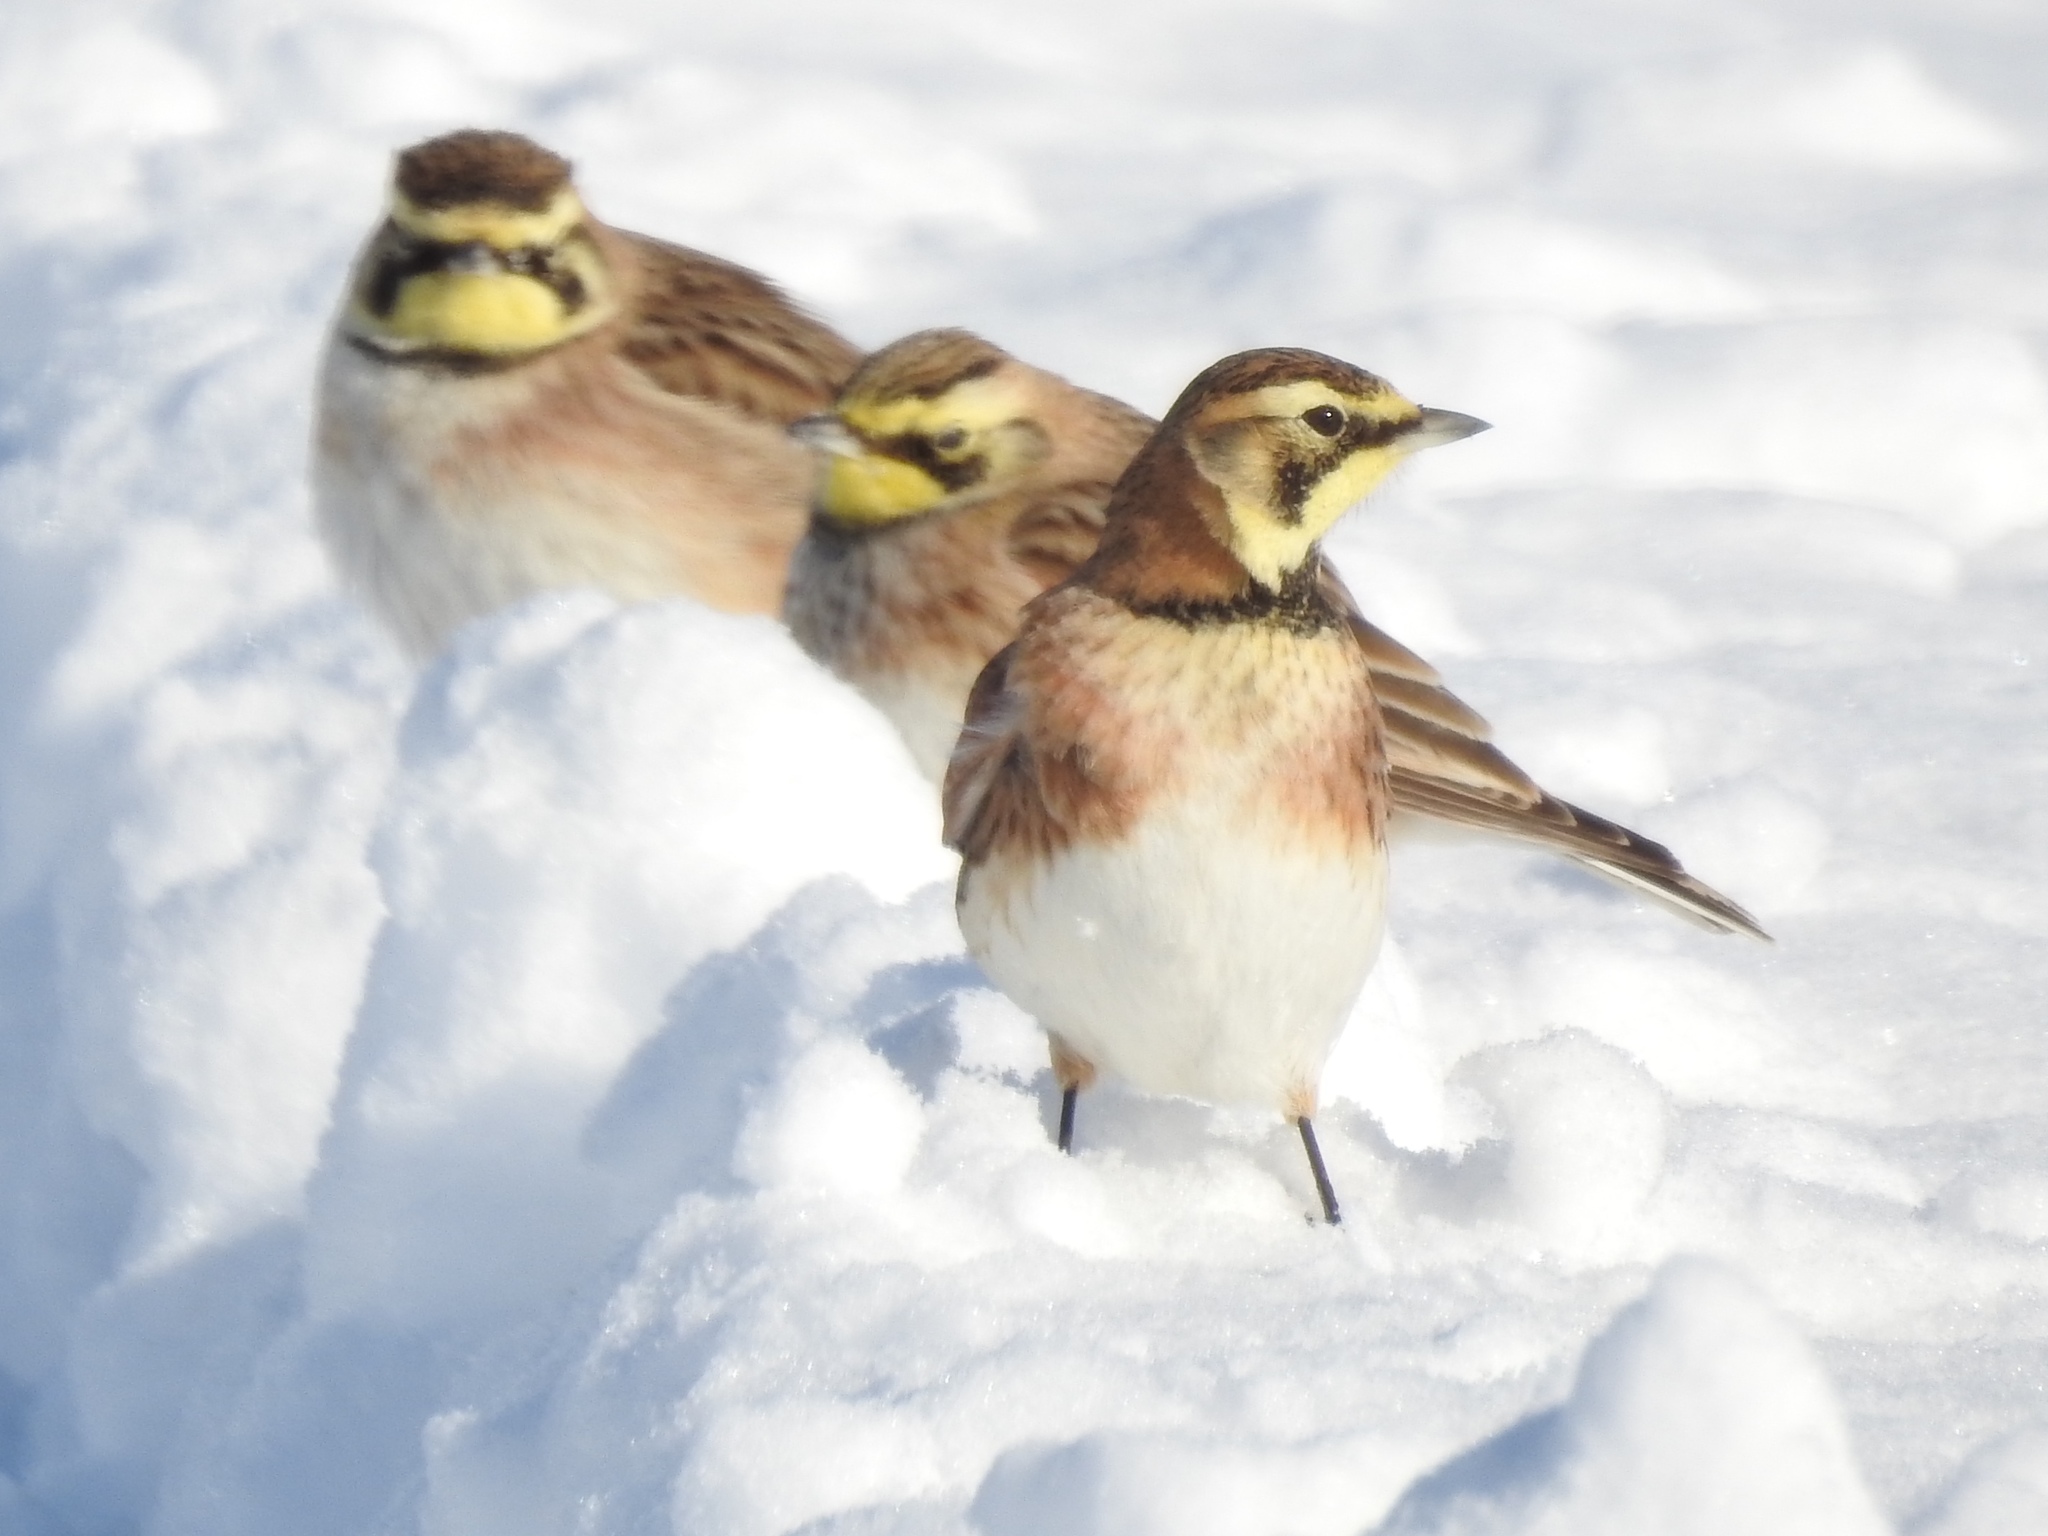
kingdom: Animalia
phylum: Chordata
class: Aves
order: Passeriformes
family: Alaudidae
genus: Eremophila
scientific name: Eremophila alpestris
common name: Horned lark
